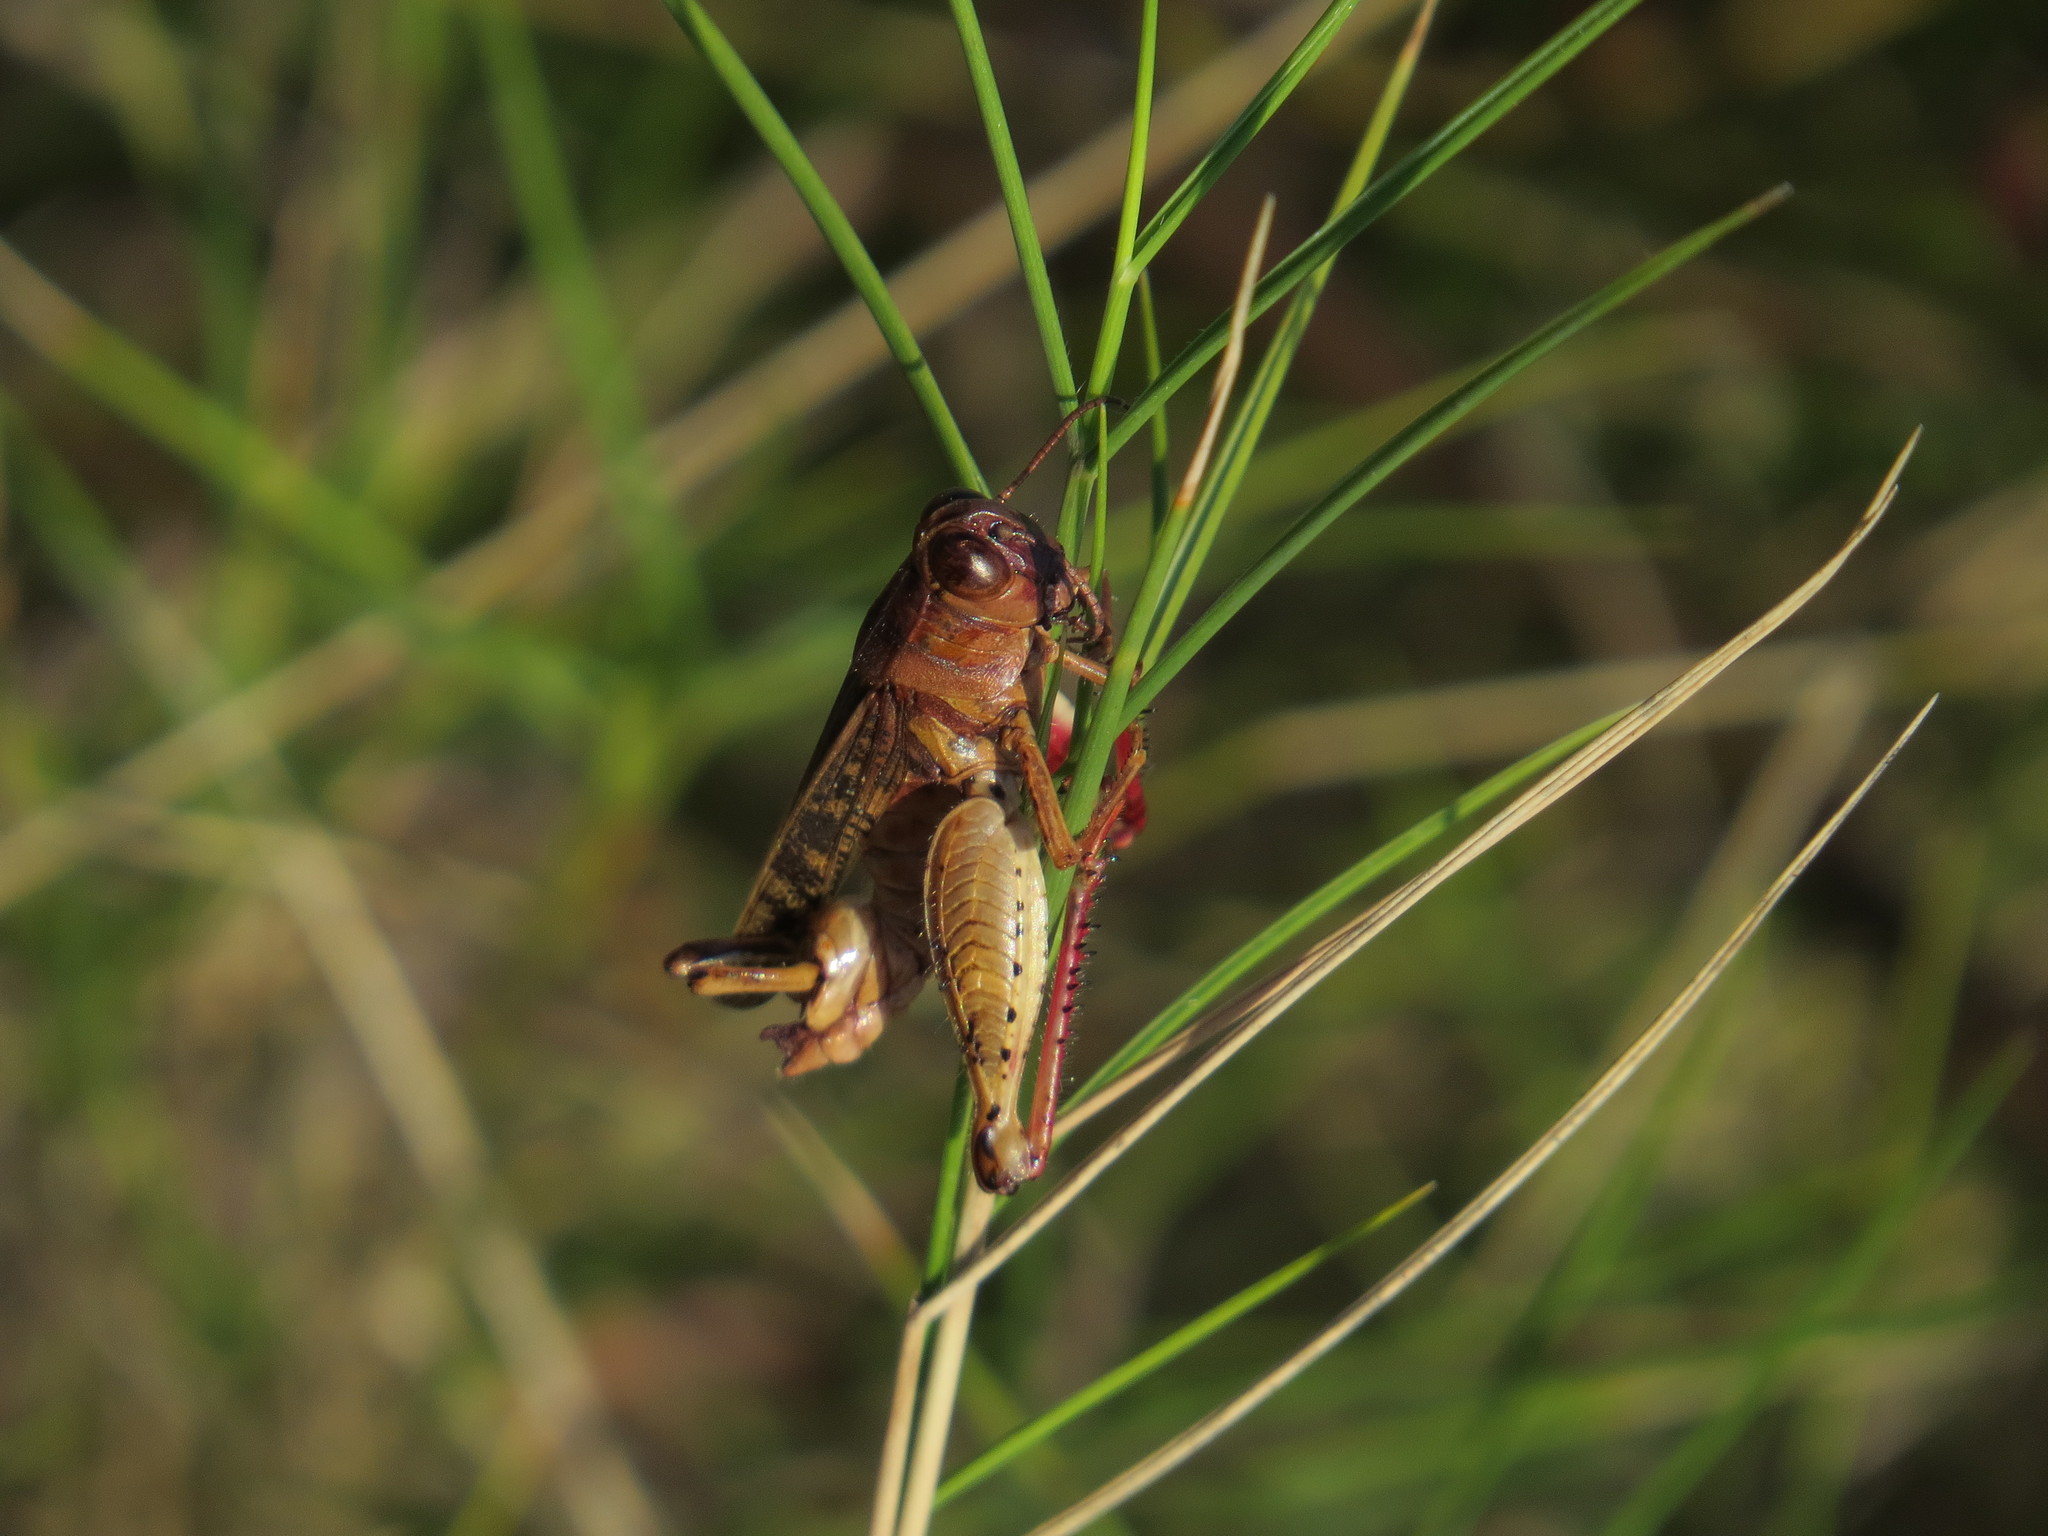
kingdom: Animalia
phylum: Arthropoda
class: Insecta
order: Orthoptera
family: Acrididae
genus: Calliptamus
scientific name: Calliptamus italicus
